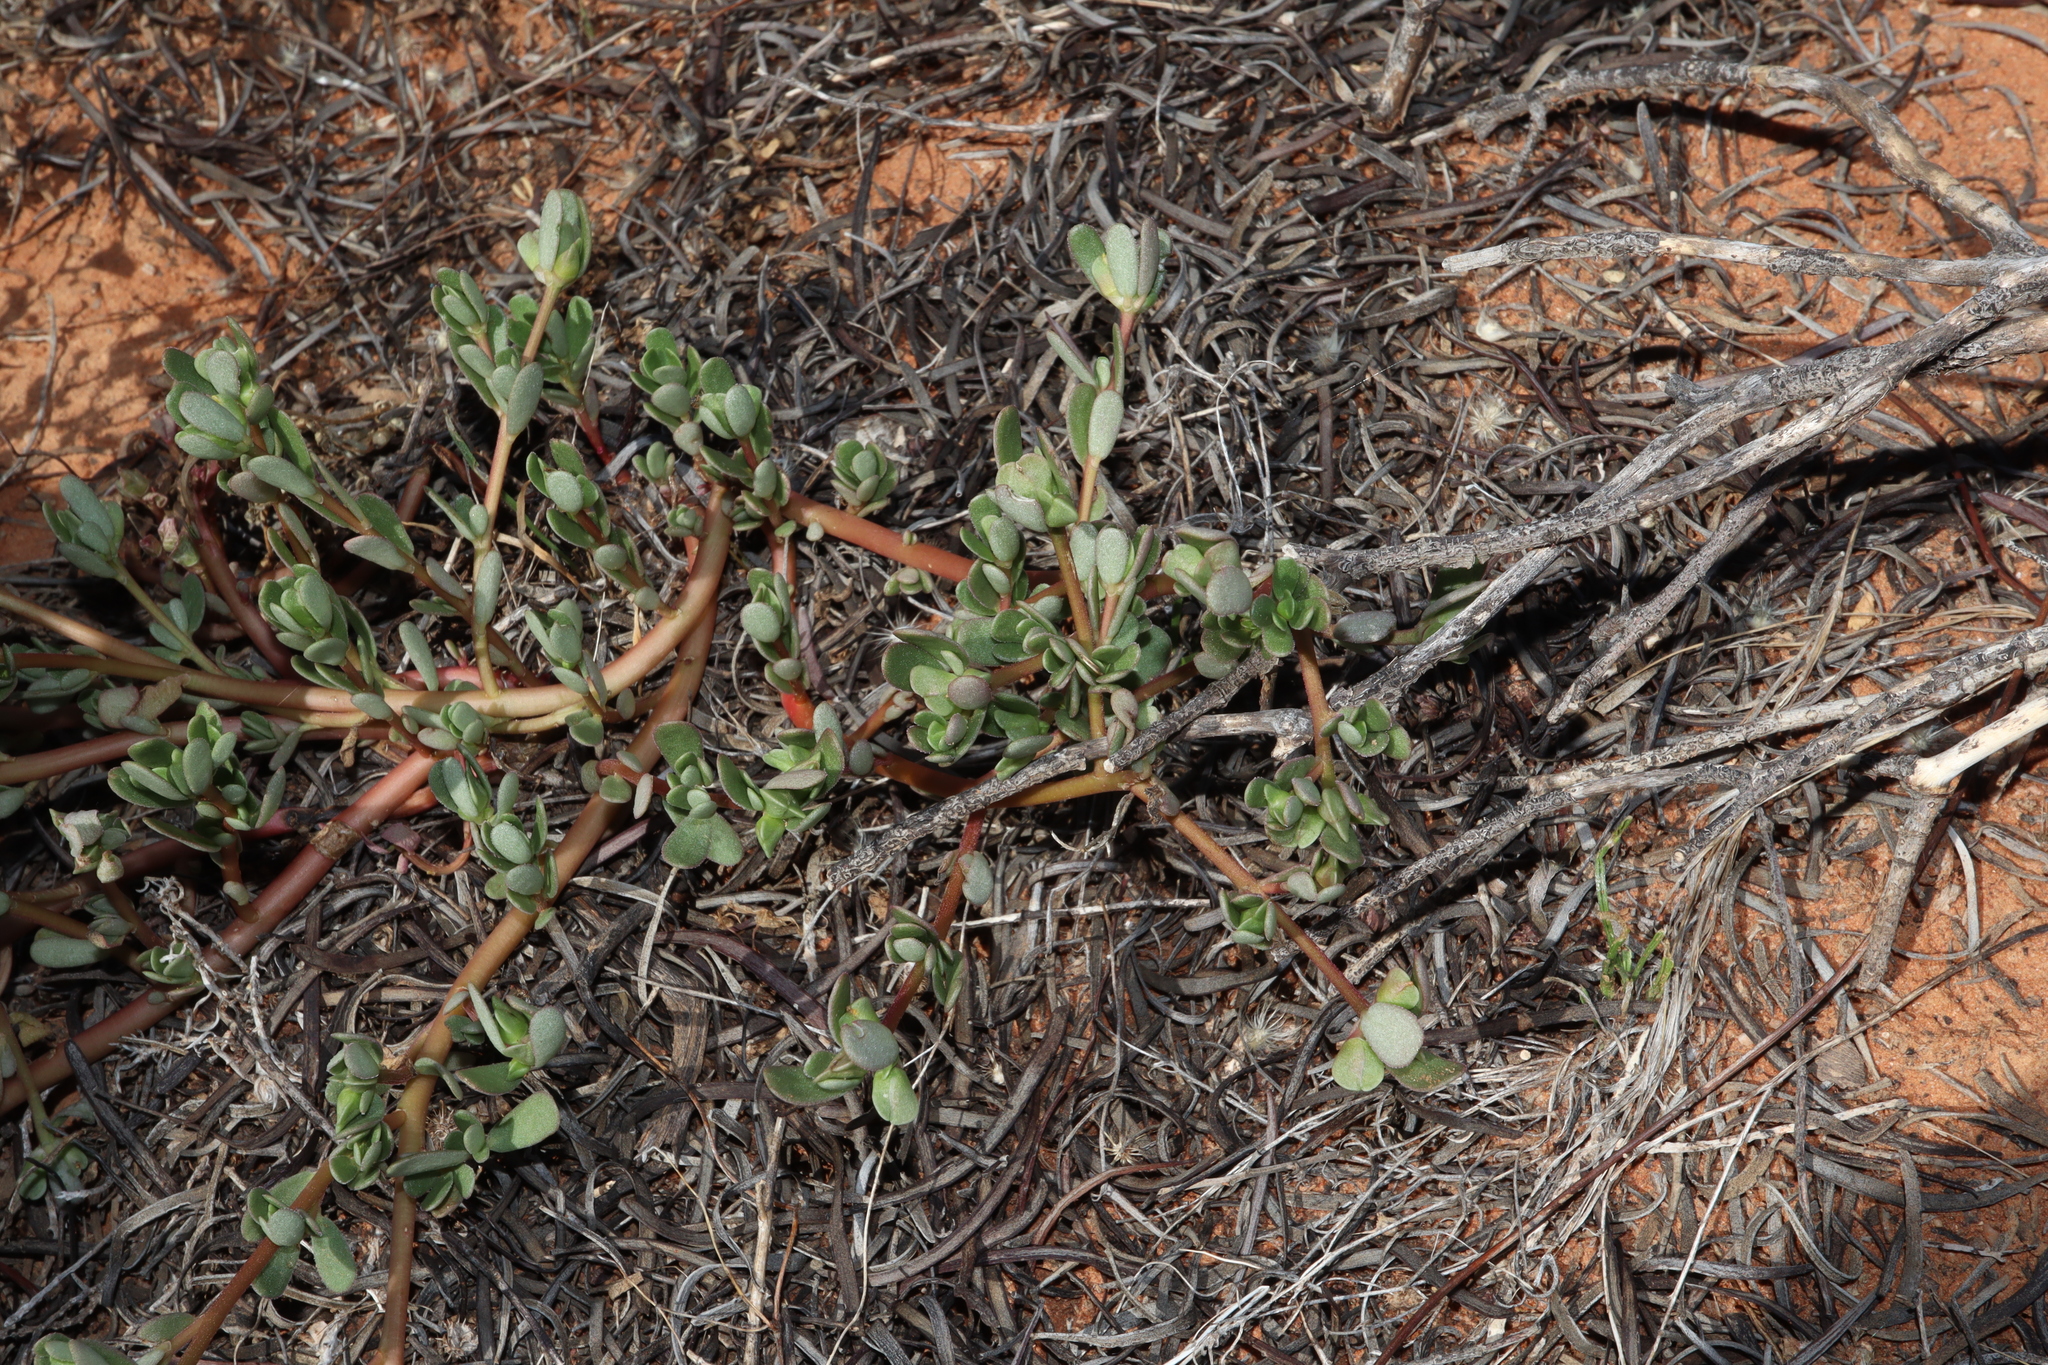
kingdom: Plantae
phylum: Tracheophyta
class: Magnoliopsida
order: Caryophyllales
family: Portulacaceae
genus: Portulaca
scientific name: Portulaca oleracea
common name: Common purslane
